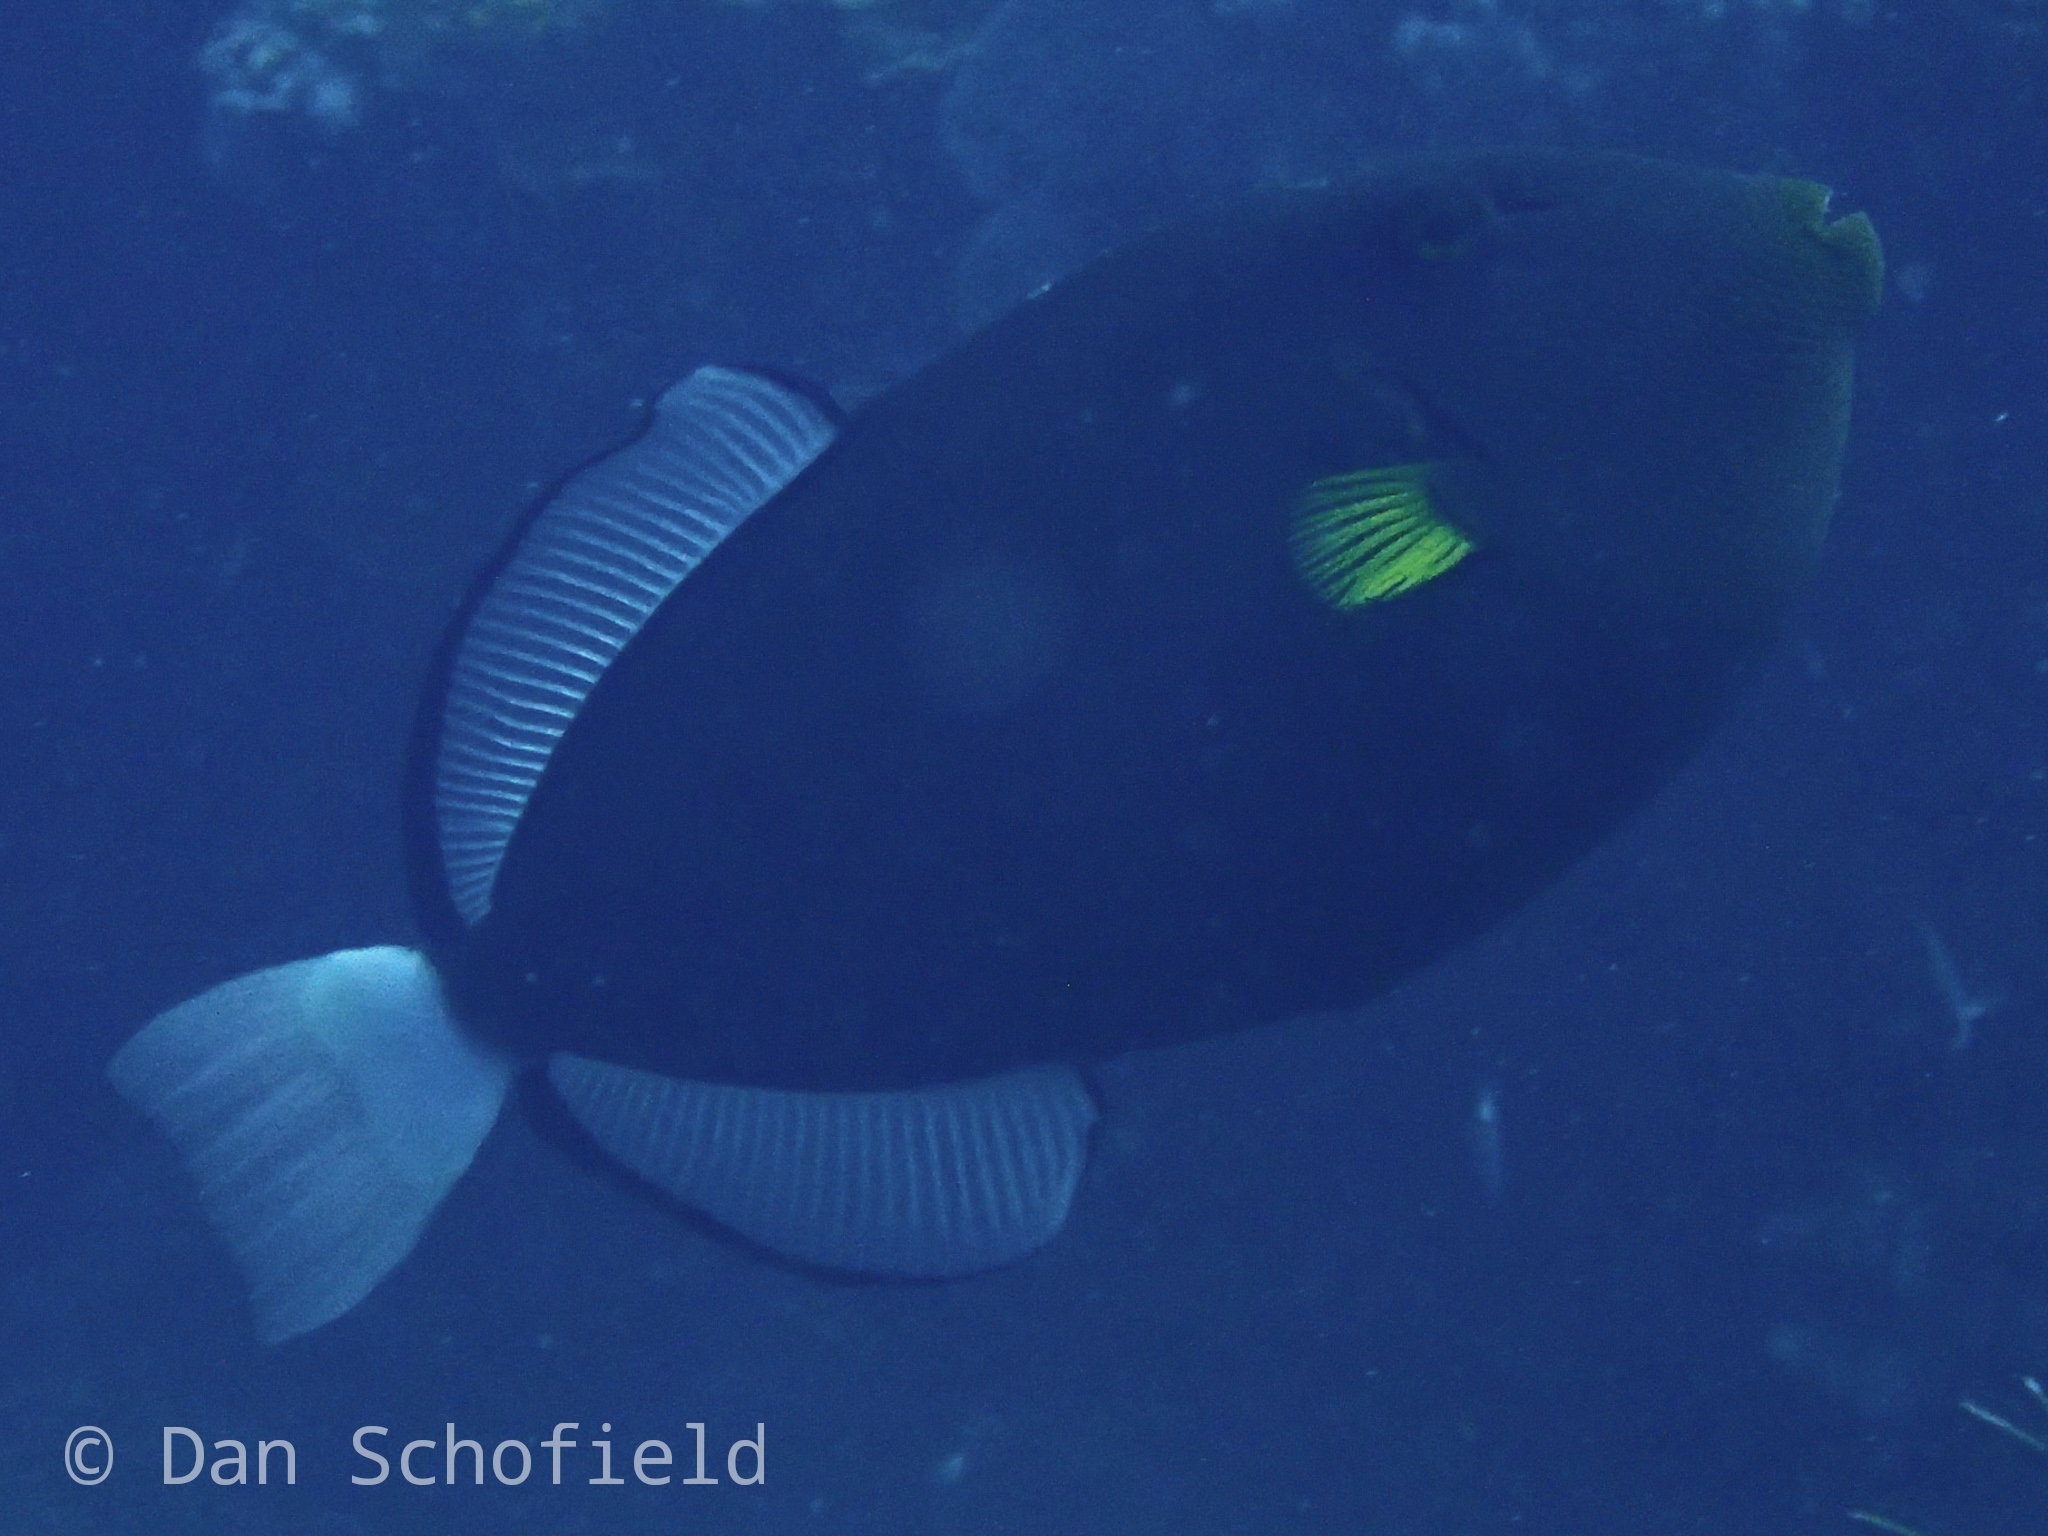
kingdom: Animalia
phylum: Chordata
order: Tetraodontiformes
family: Balistidae
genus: Melichthys
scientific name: Melichthys vidua
